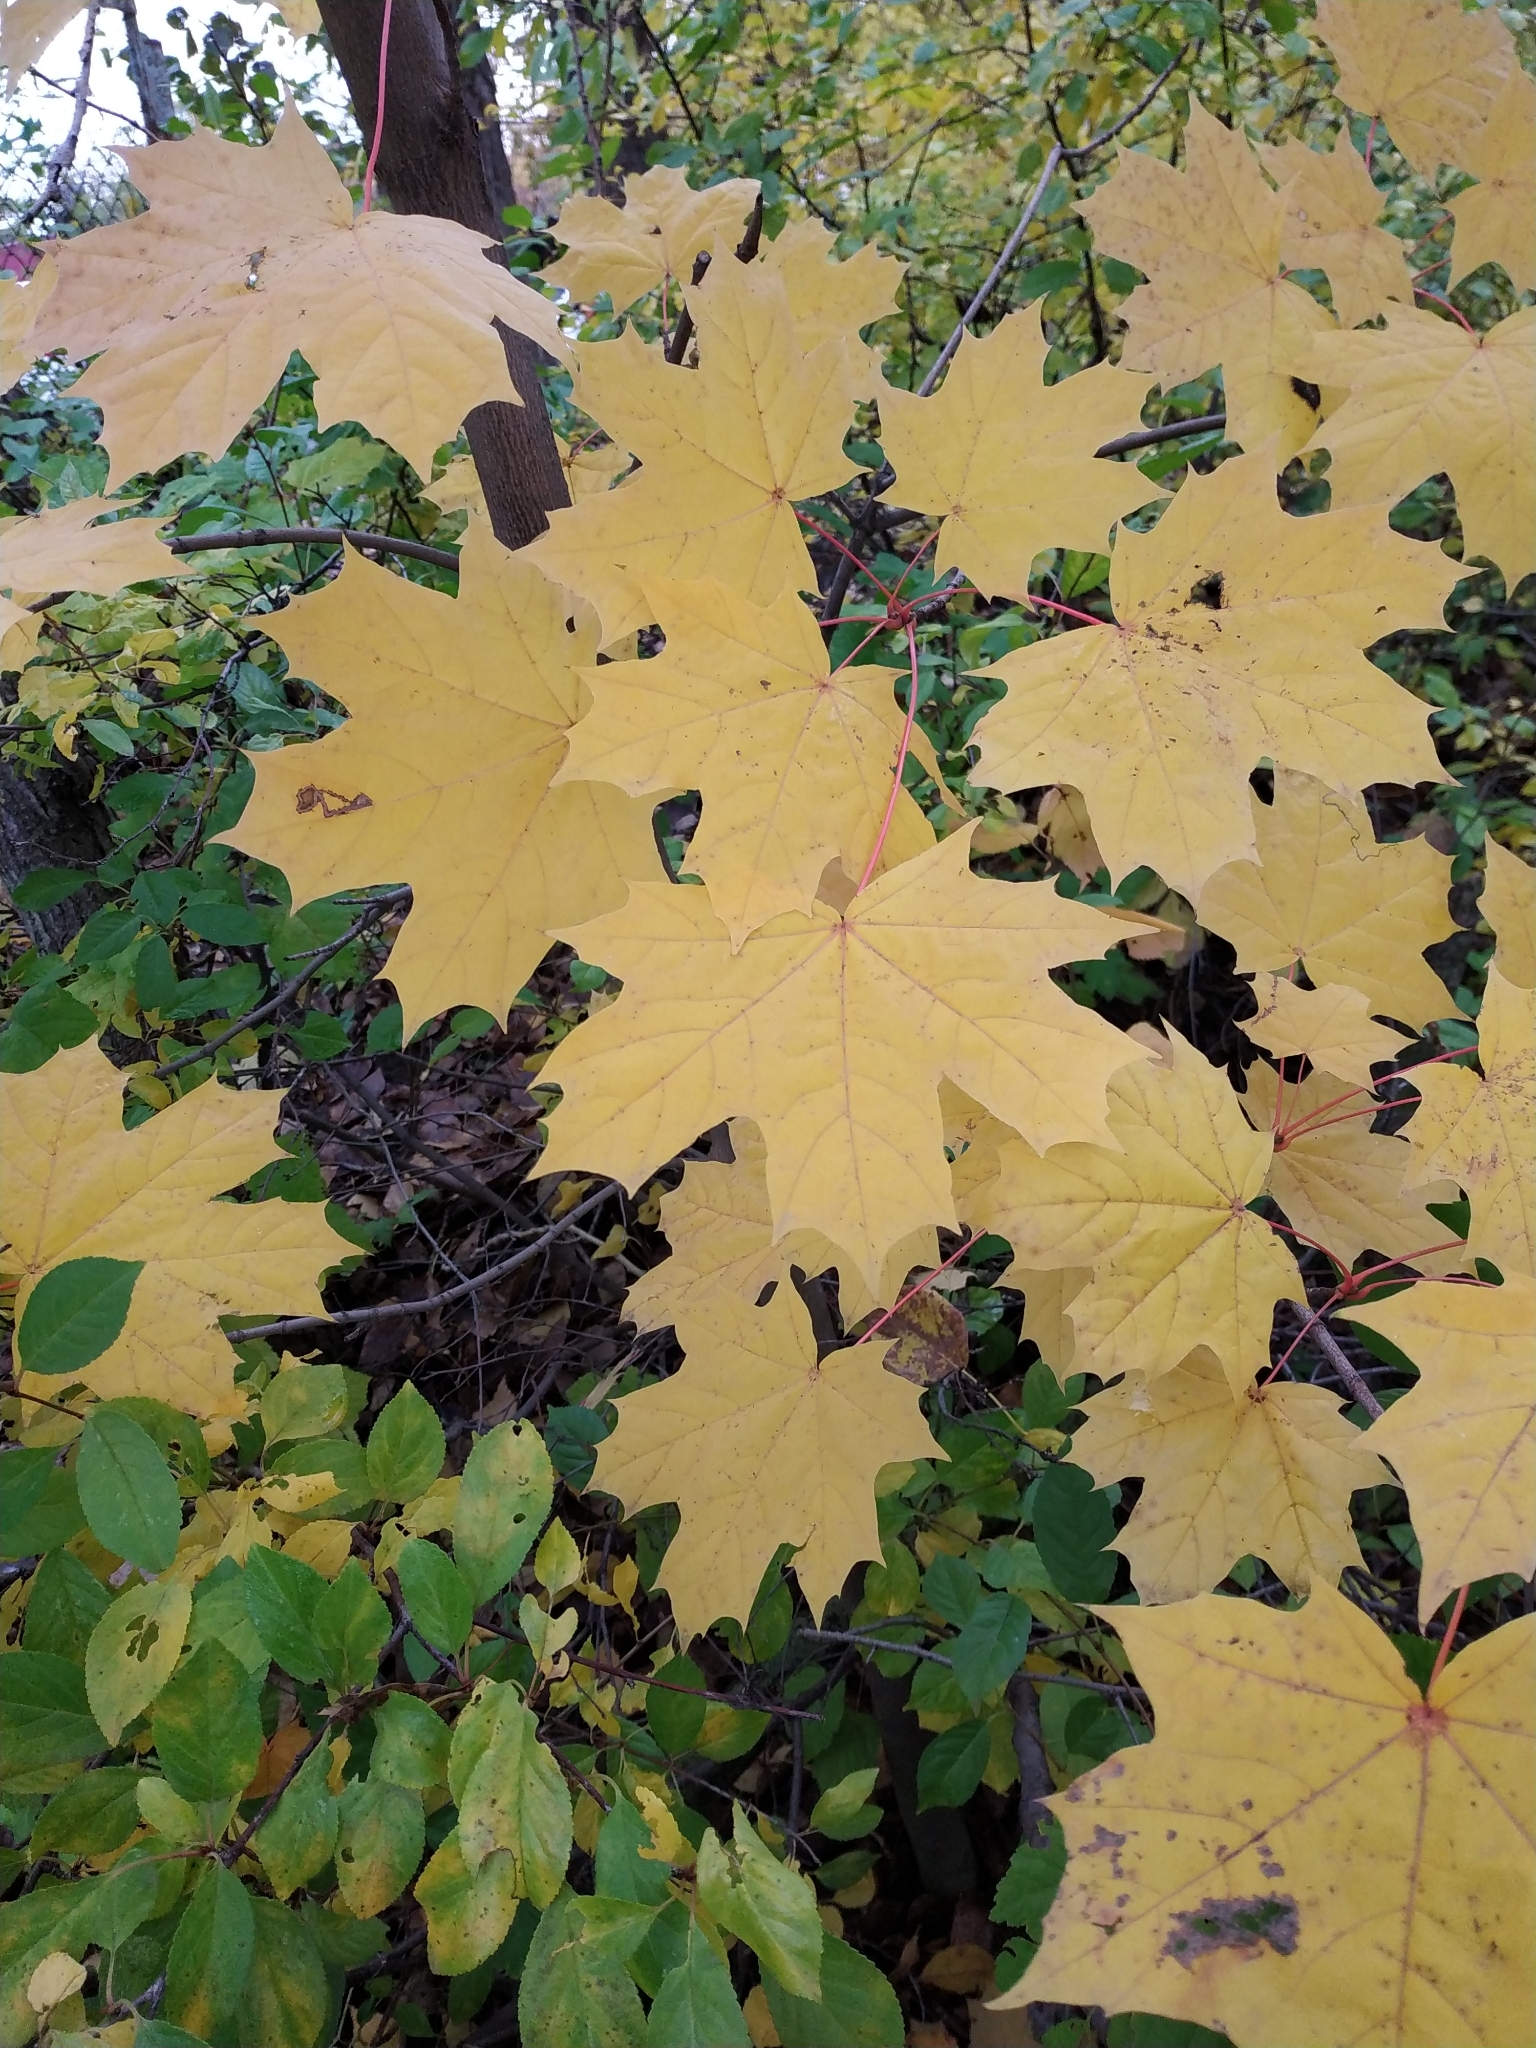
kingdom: Plantae
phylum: Tracheophyta
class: Magnoliopsida
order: Sapindales
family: Sapindaceae
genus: Acer
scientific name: Acer platanoides
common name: Norway maple
